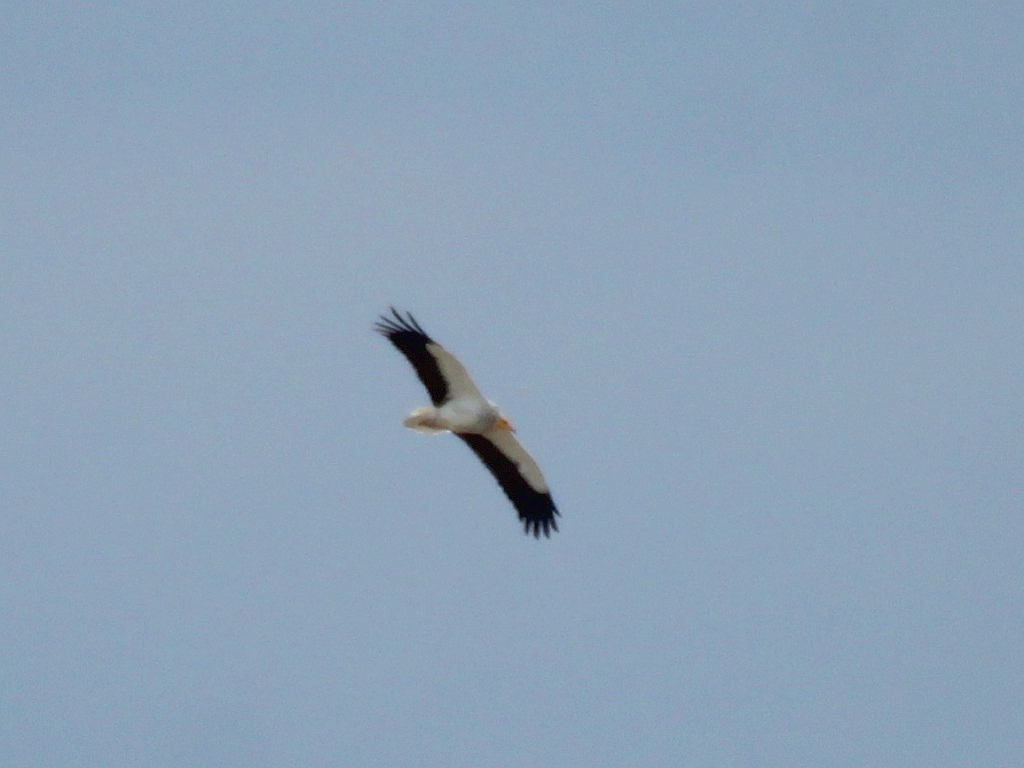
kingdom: Animalia
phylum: Chordata
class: Aves
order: Accipitriformes
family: Accipitridae
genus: Neophron
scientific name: Neophron percnopterus
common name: Egyptian vulture
